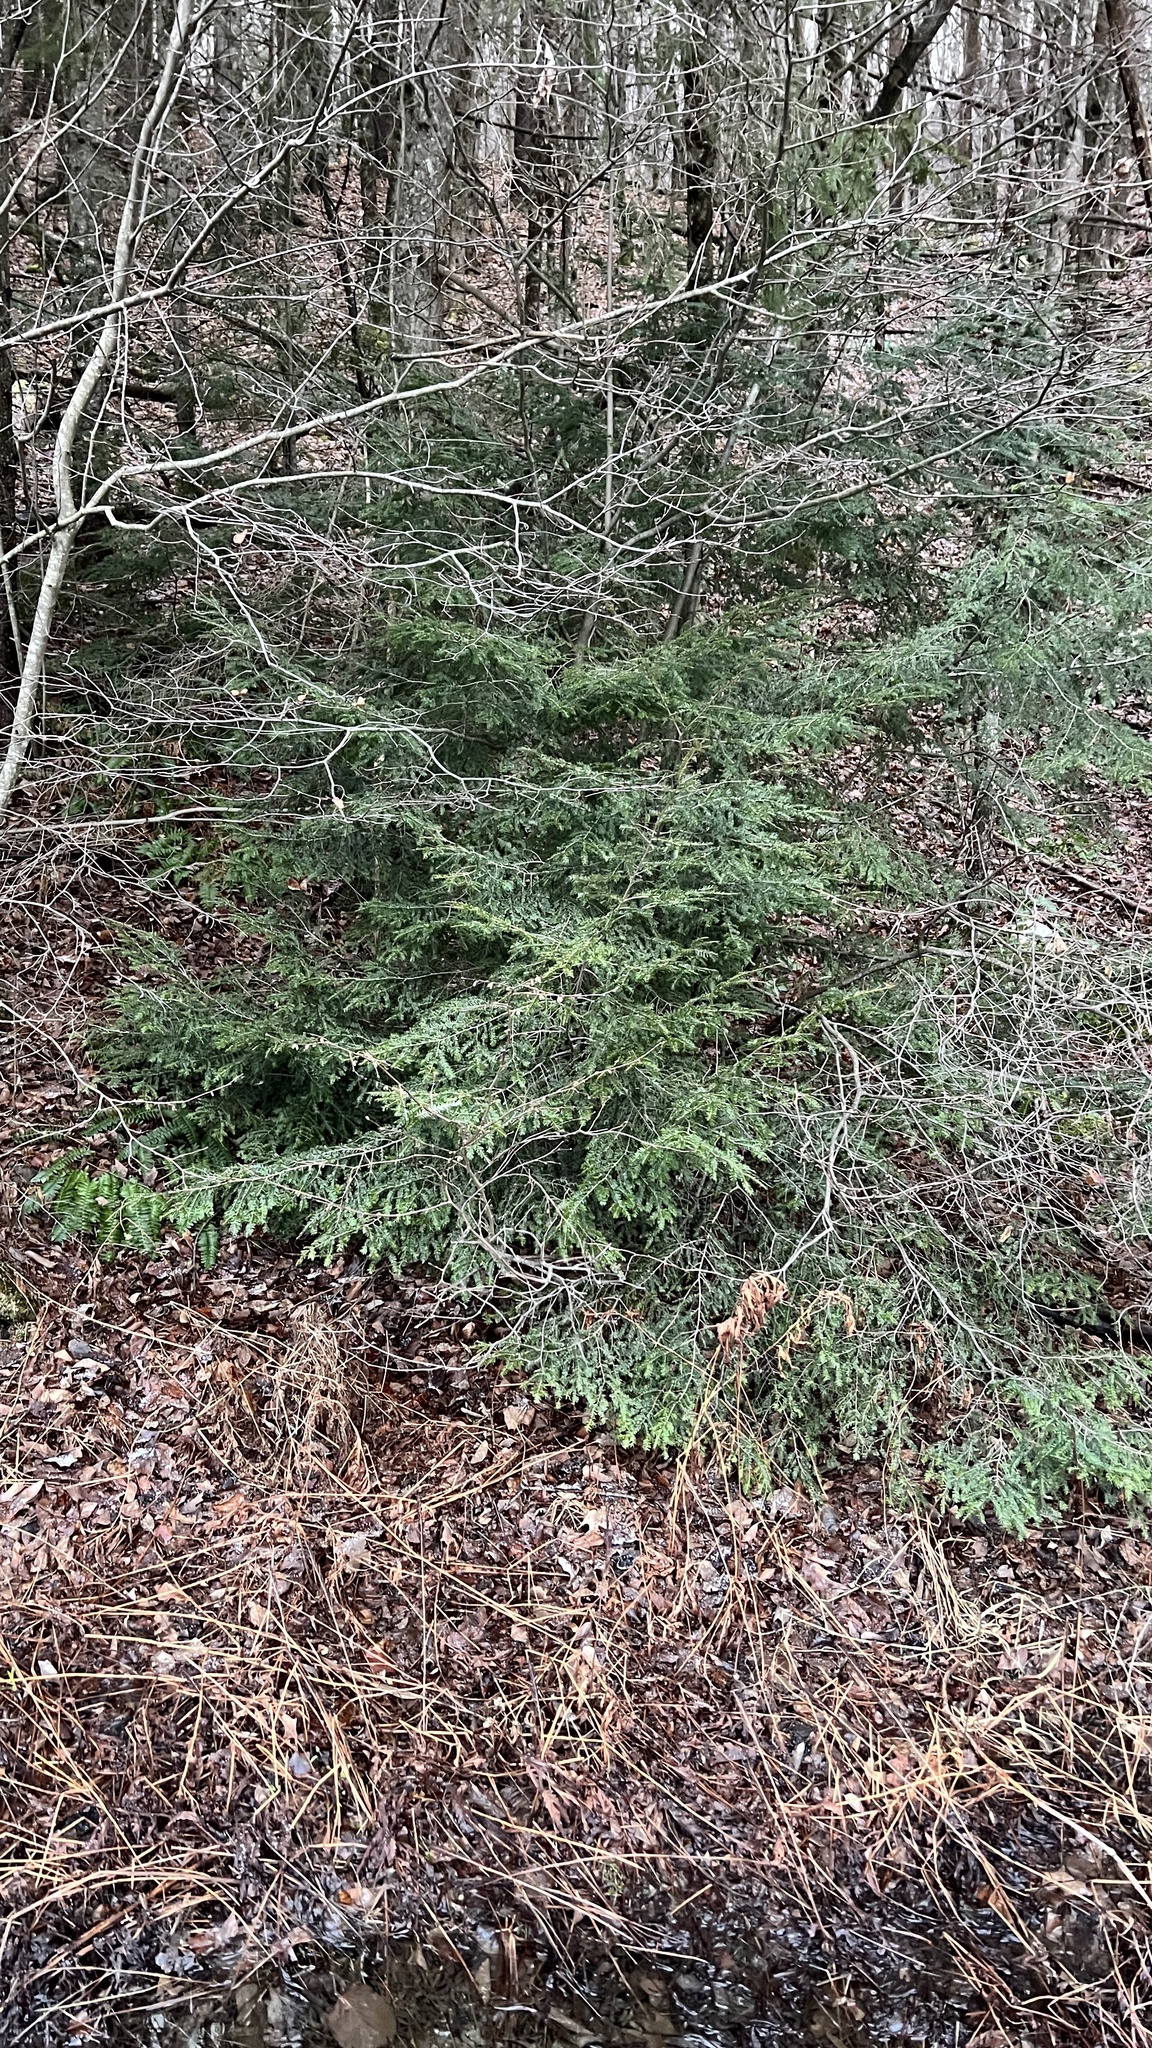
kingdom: Plantae
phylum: Tracheophyta
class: Pinopsida
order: Pinales
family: Pinaceae
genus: Tsuga
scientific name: Tsuga canadensis
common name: Eastern hemlock
